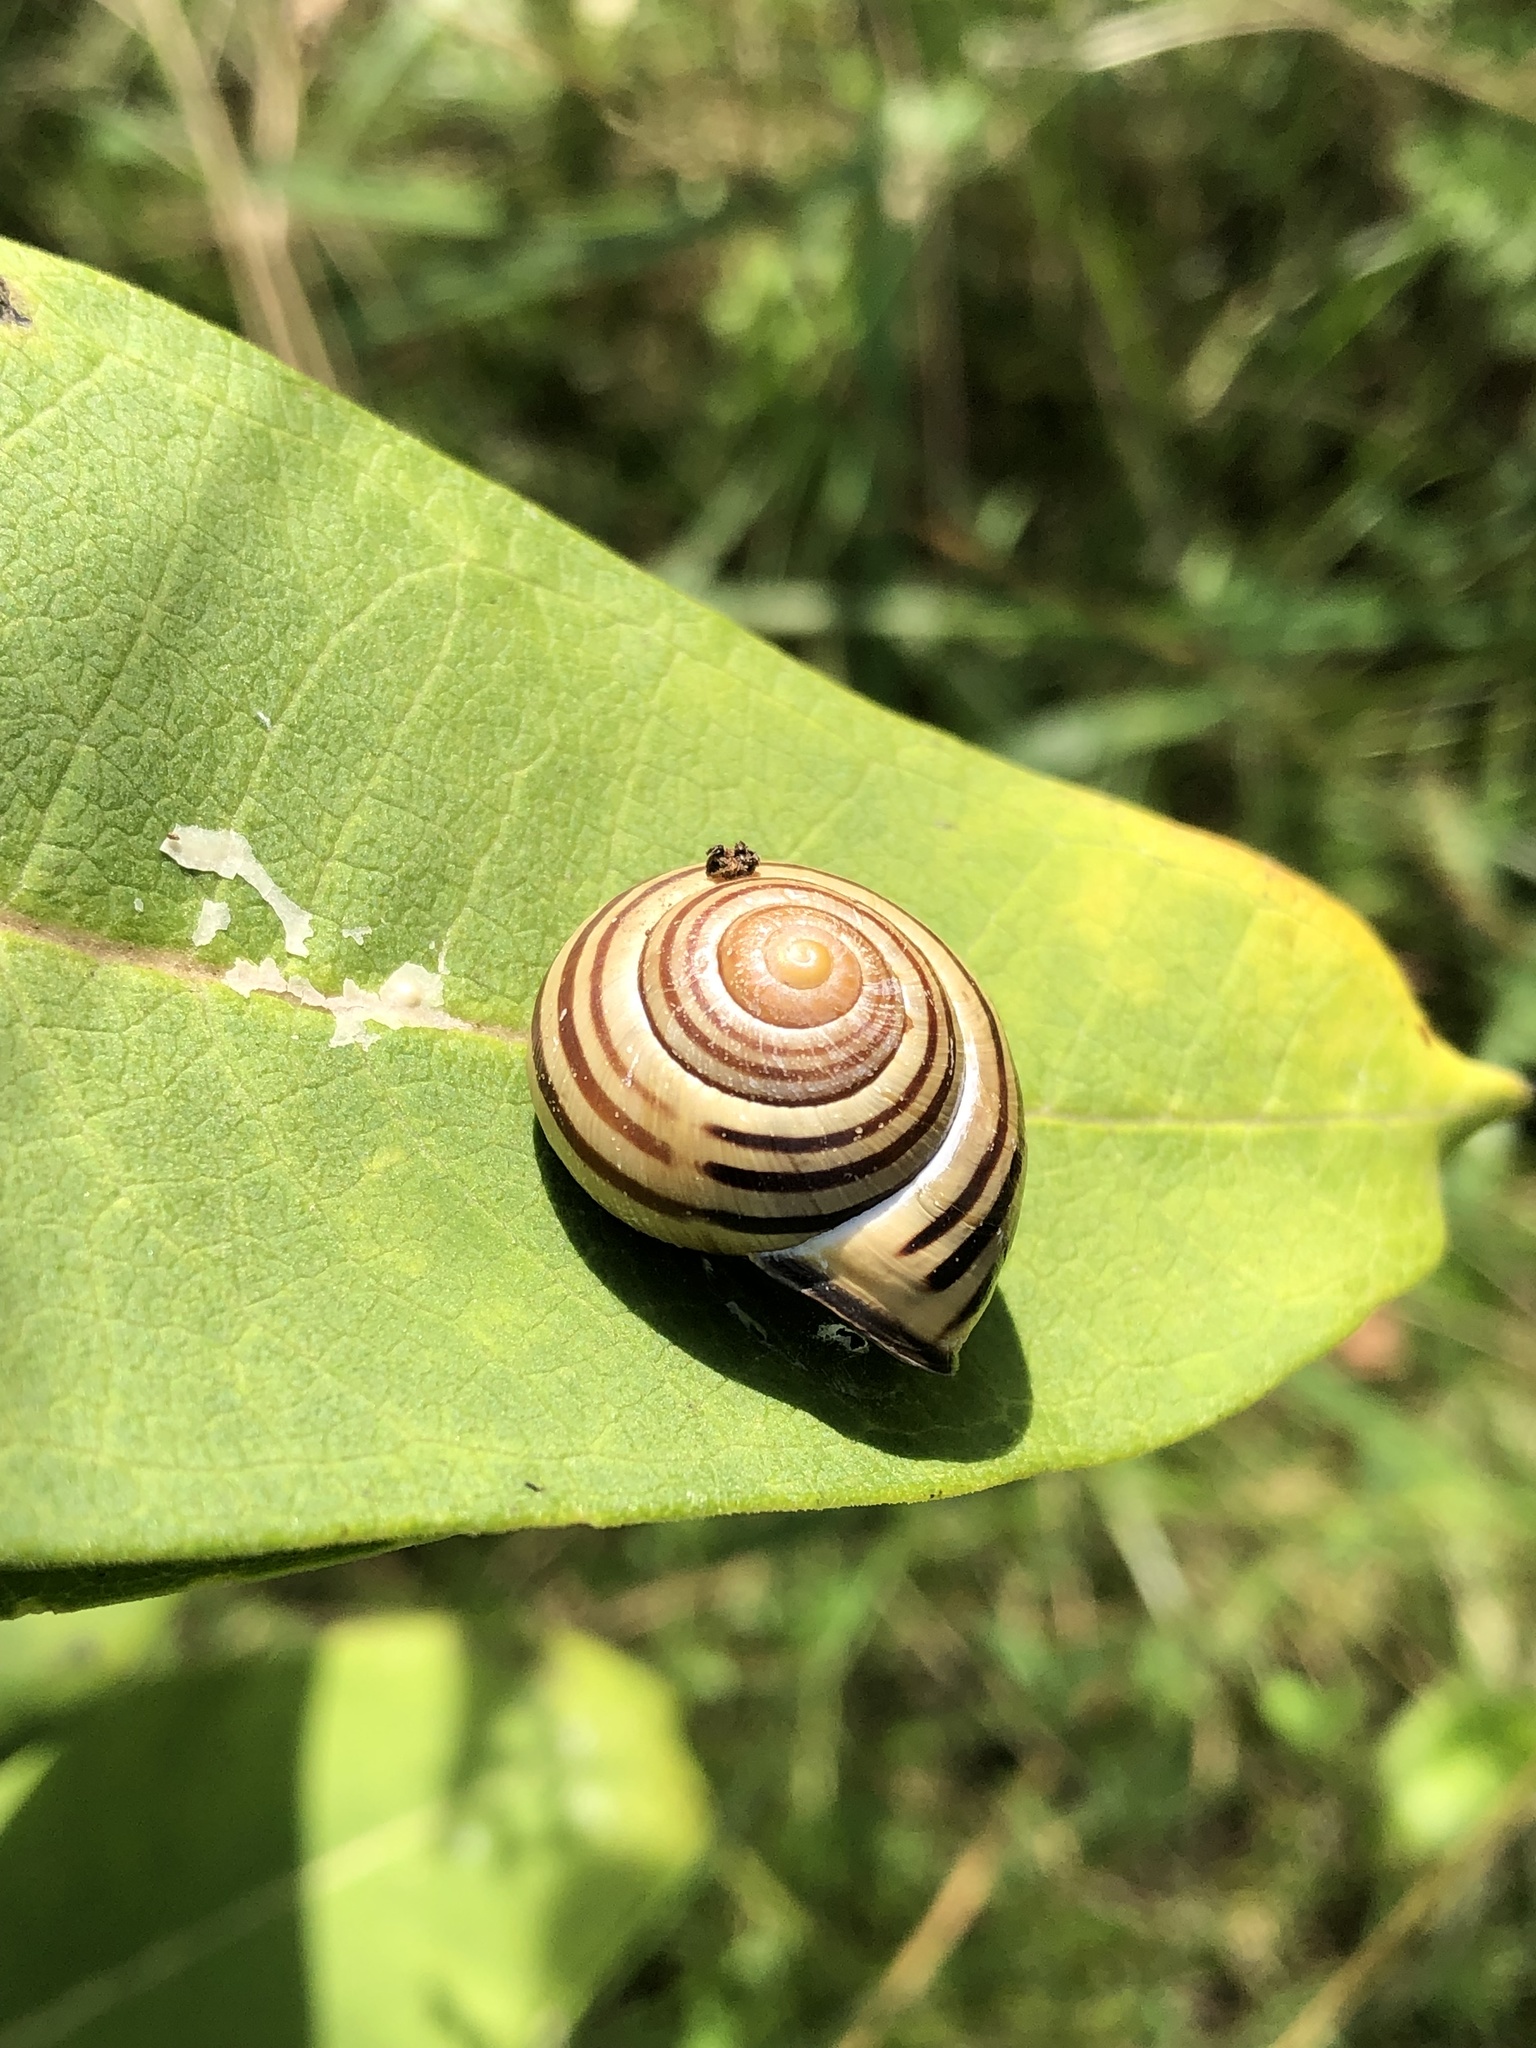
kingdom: Animalia
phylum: Mollusca
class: Gastropoda
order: Stylommatophora
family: Helicidae
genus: Cepaea
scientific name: Cepaea nemoralis
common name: Grovesnail
